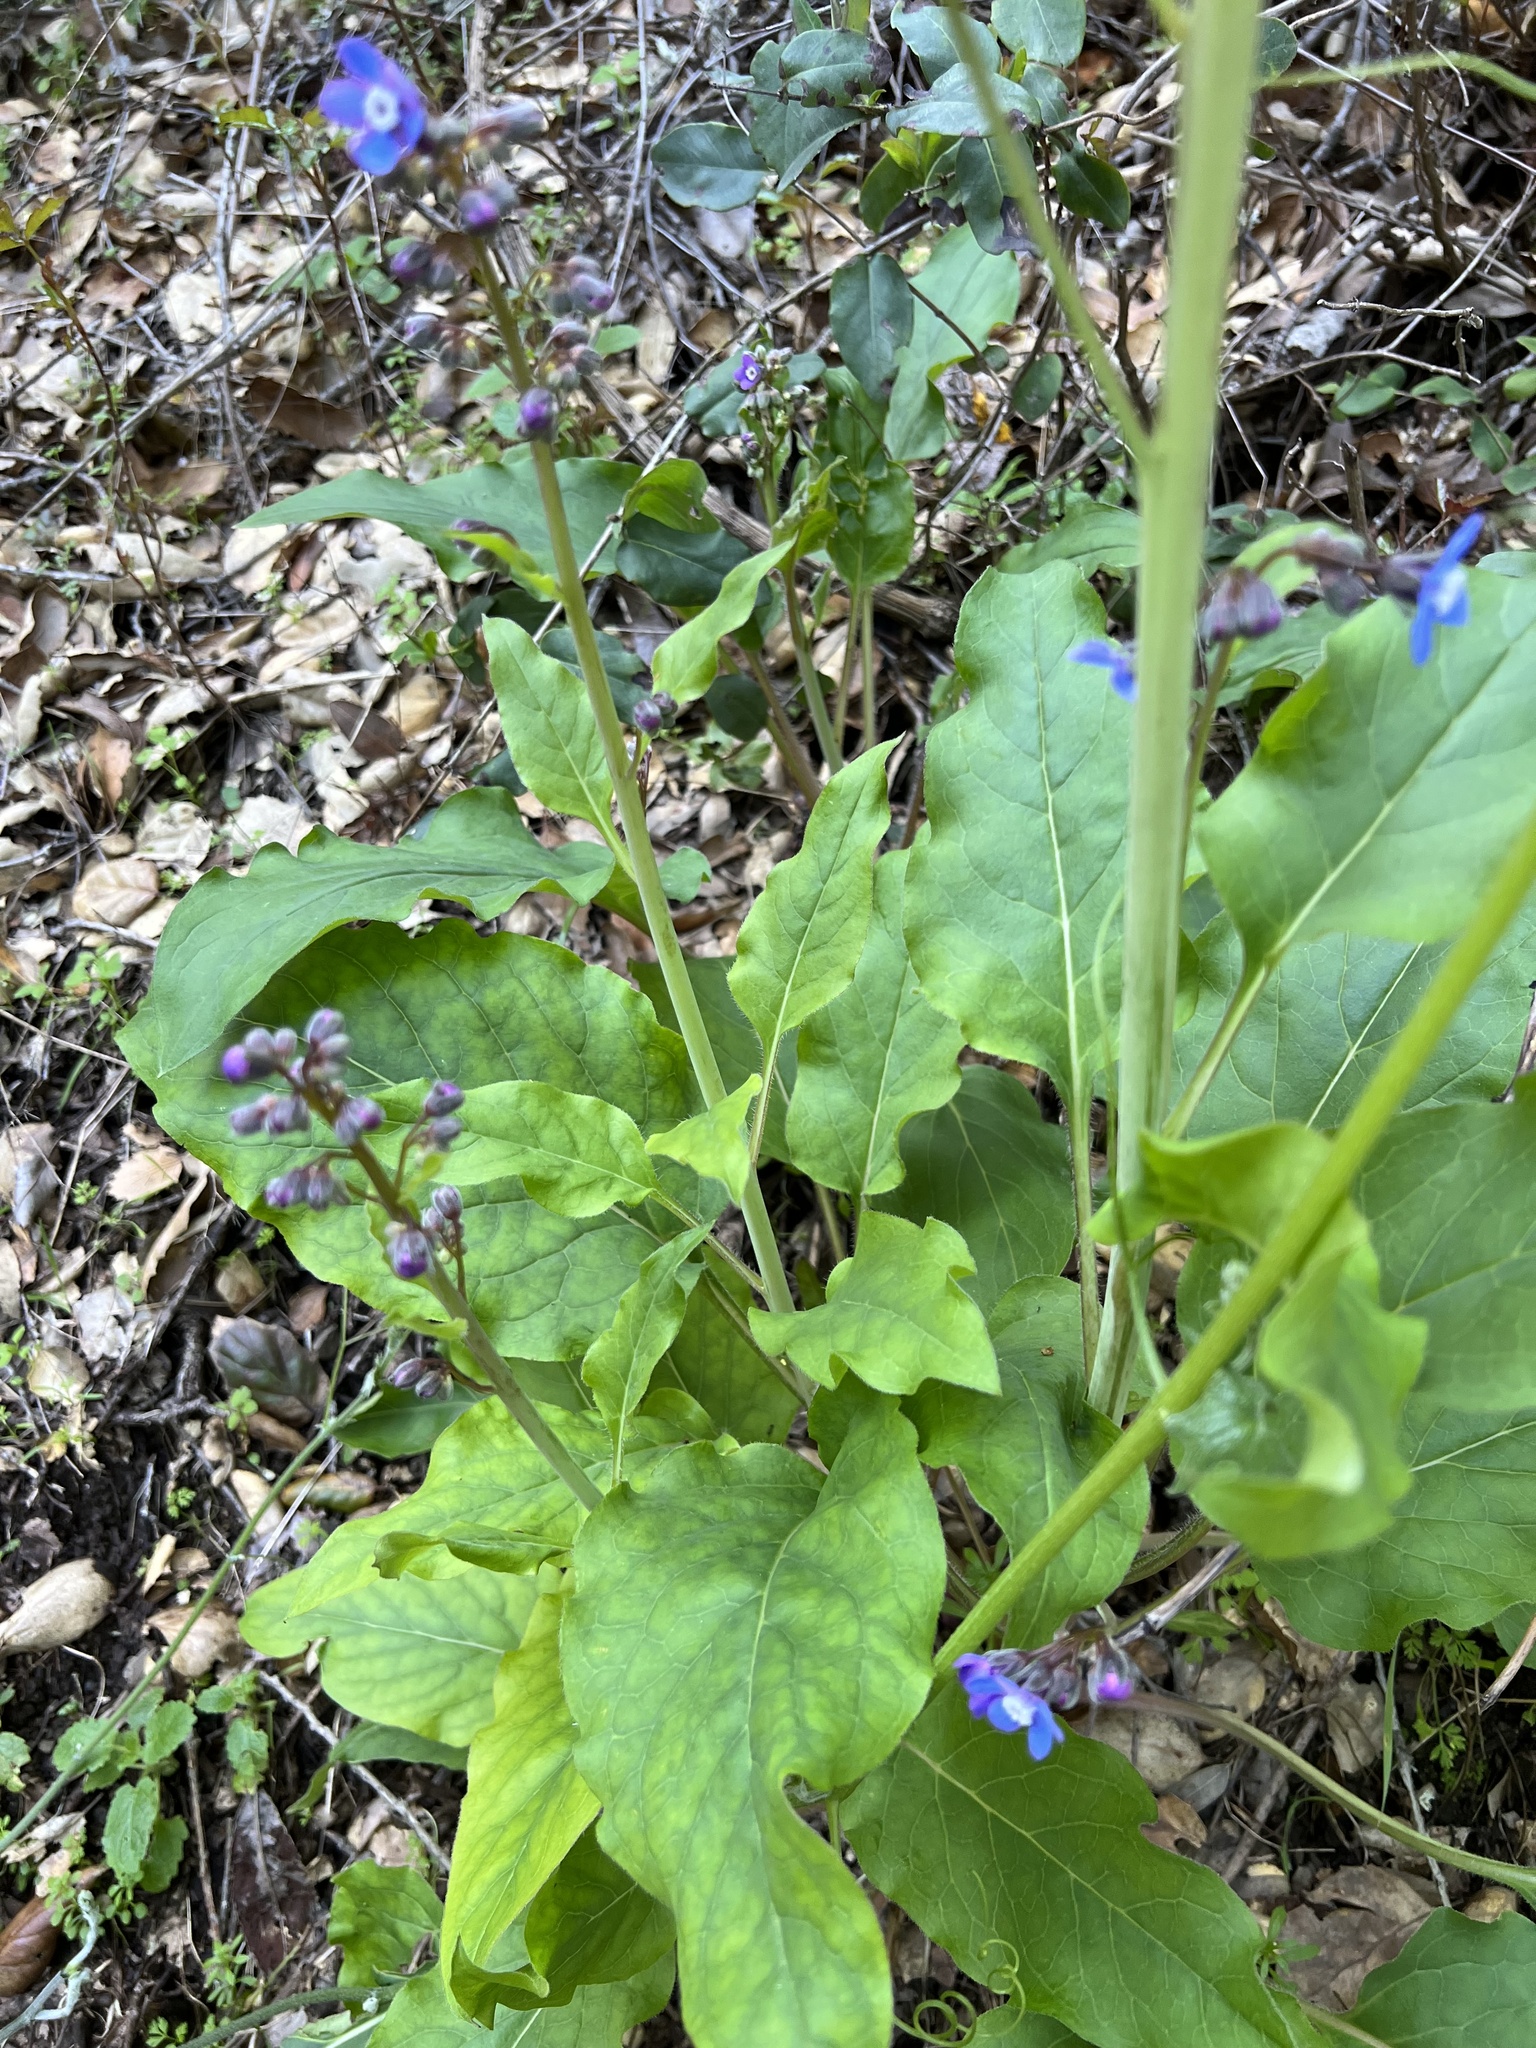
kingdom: Plantae
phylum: Tracheophyta
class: Magnoliopsida
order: Boraginales
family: Boraginaceae
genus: Adelinia
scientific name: Adelinia grande
